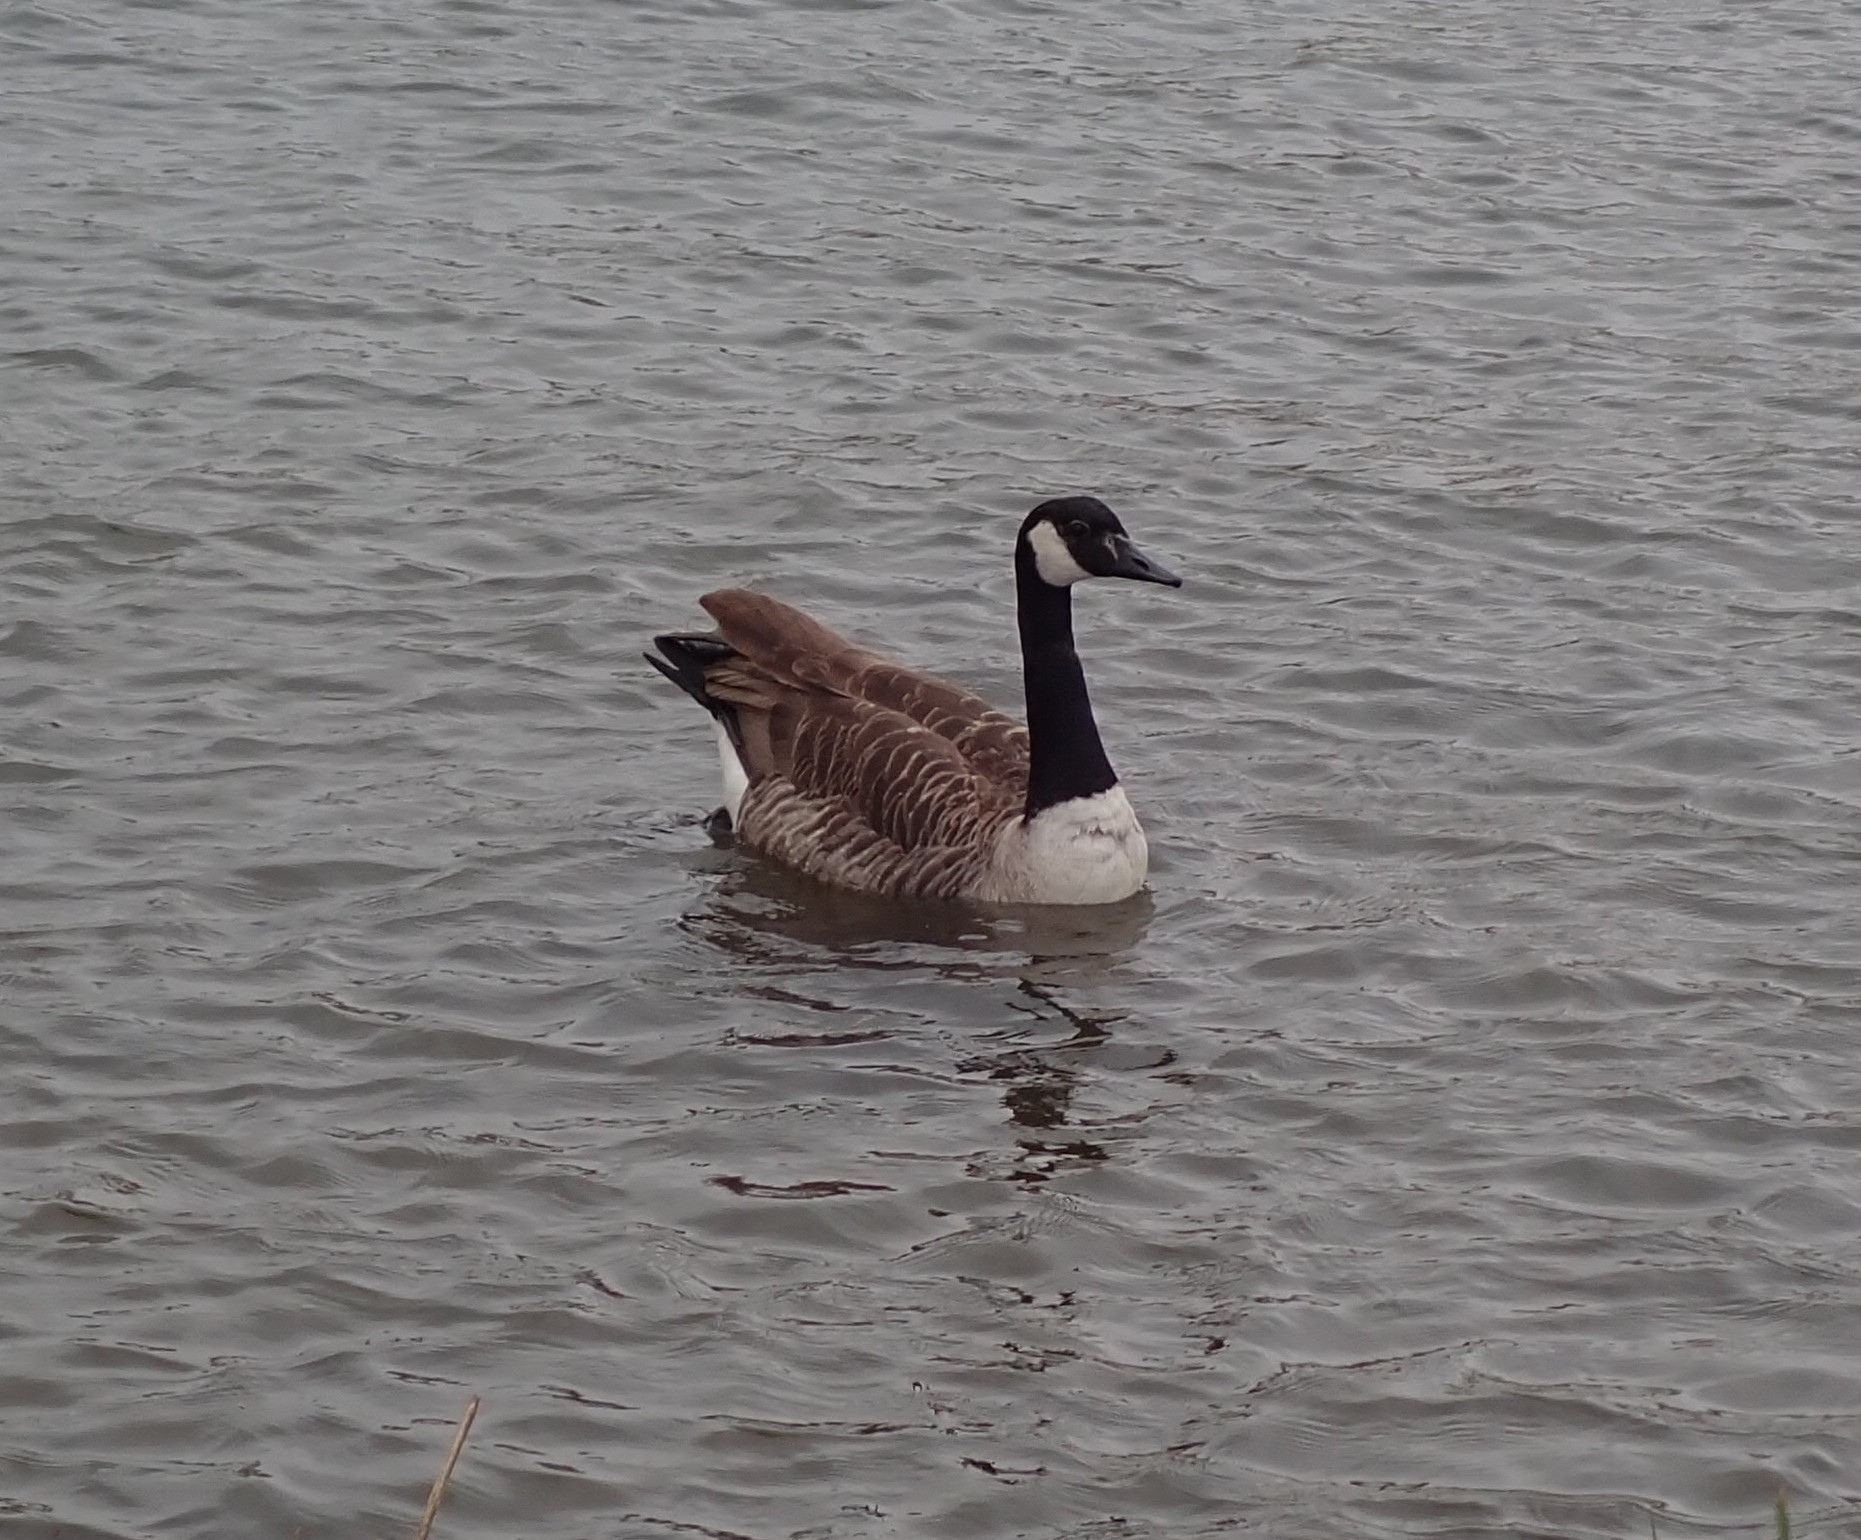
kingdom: Animalia
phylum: Chordata
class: Aves
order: Anseriformes
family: Anatidae
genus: Branta
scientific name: Branta canadensis
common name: Canada goose
